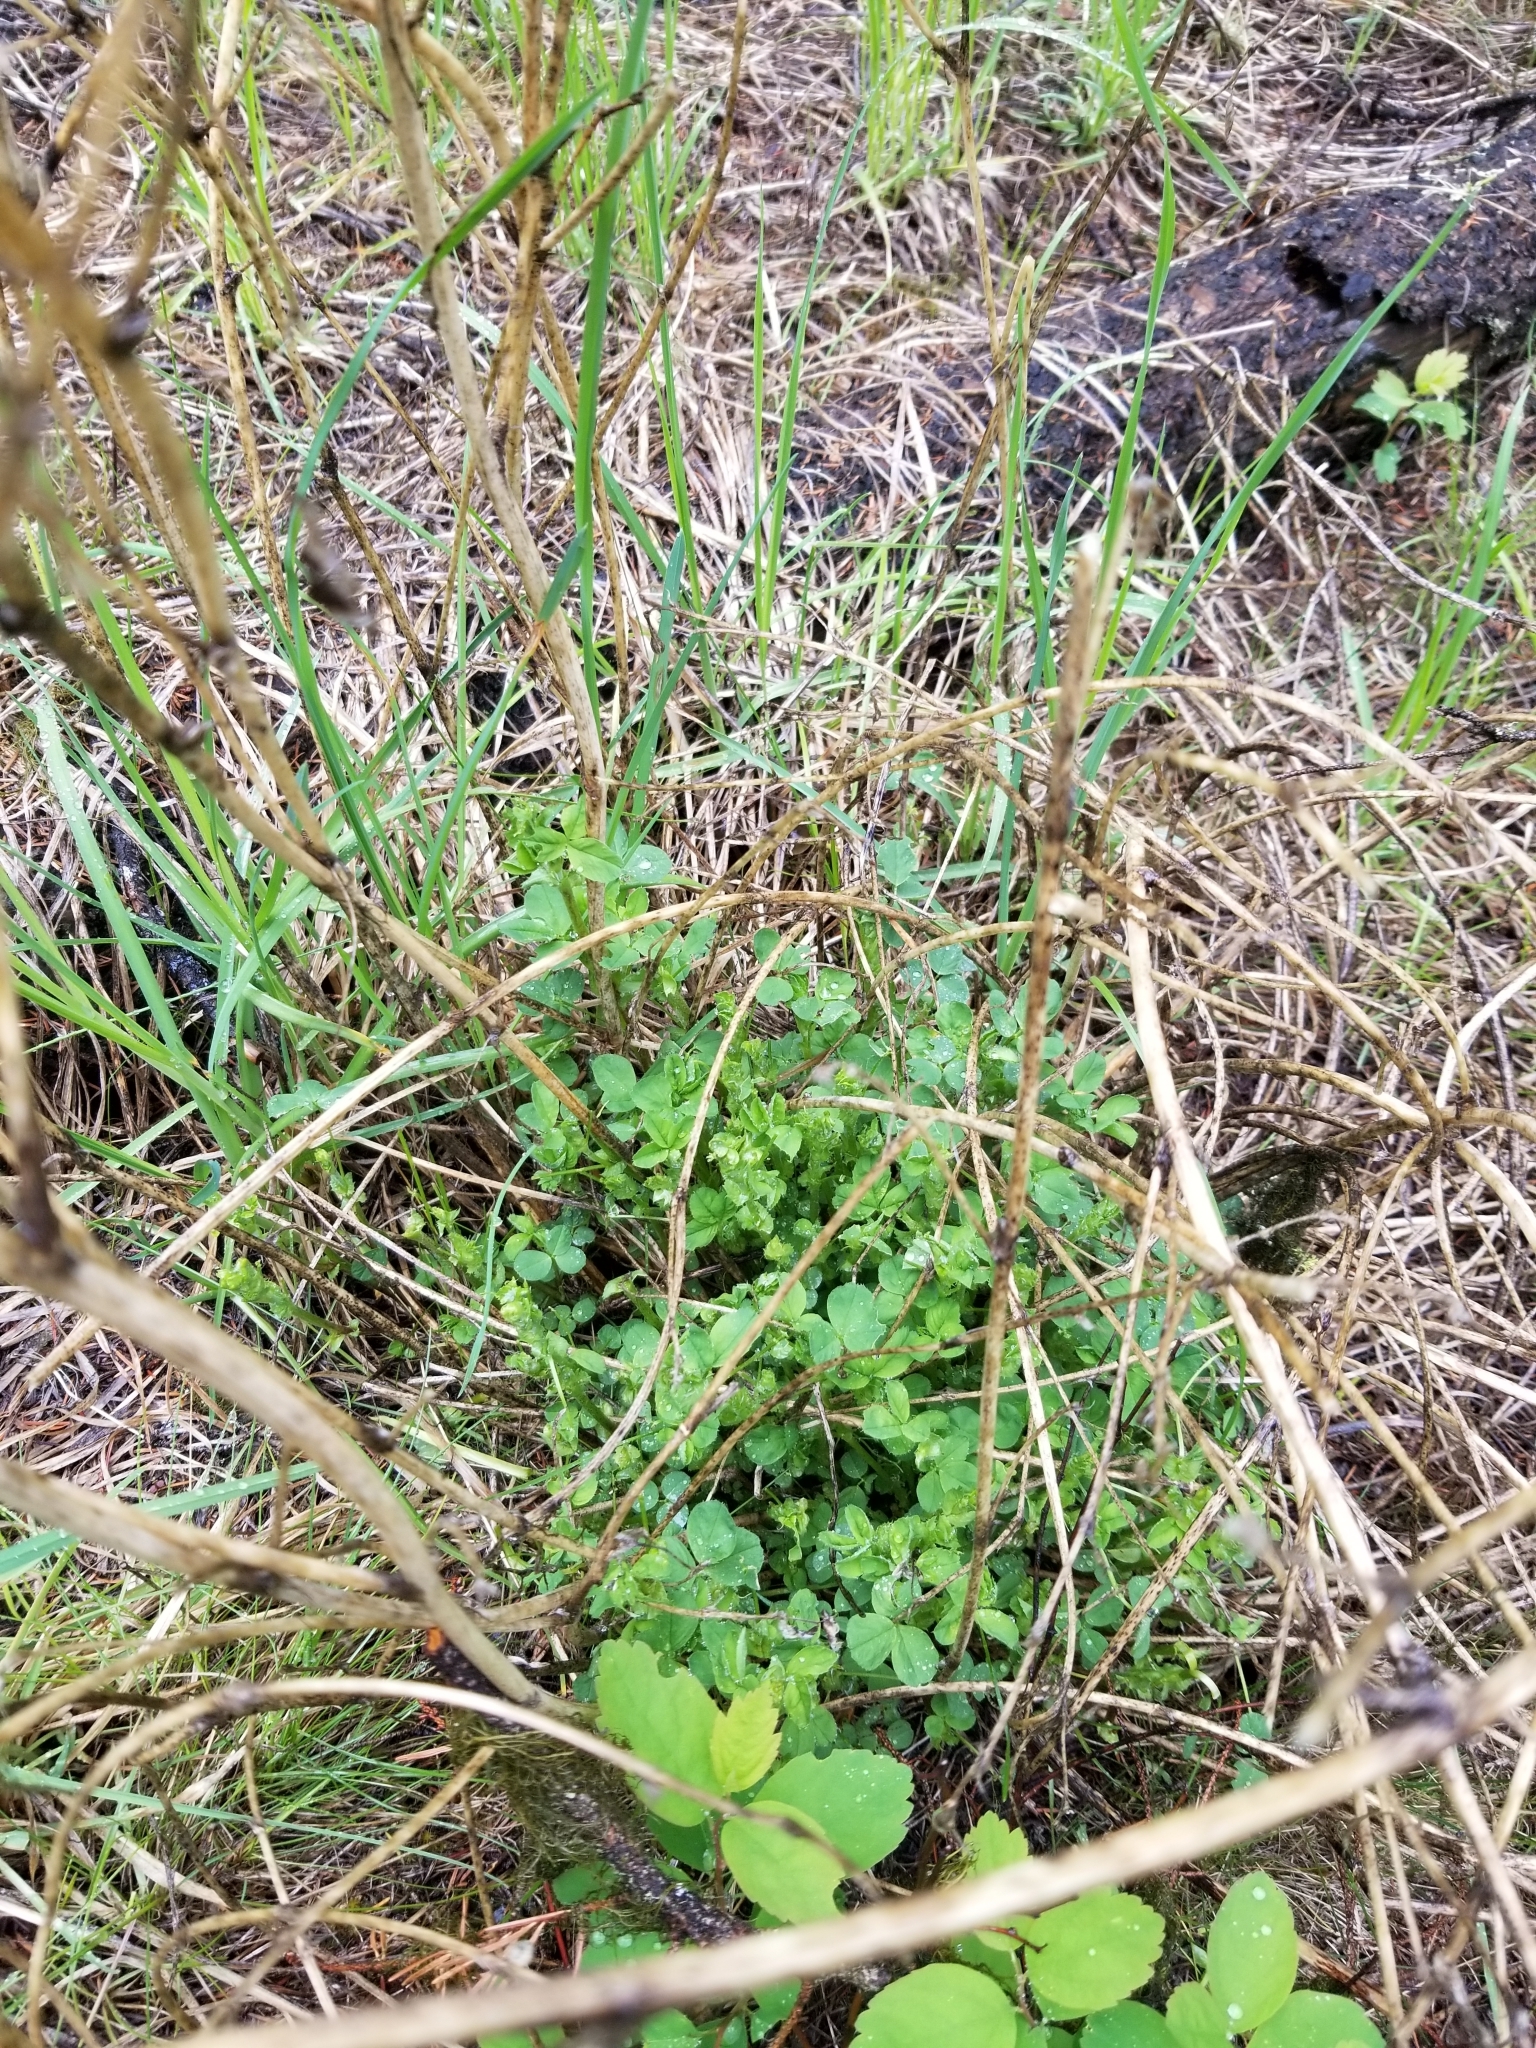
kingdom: Plantae
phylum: Tracheophyta
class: Magnoliopsida
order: Fabales
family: Fabaceae
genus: Medicago
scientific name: Medicago sativa
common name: Alfalfa
